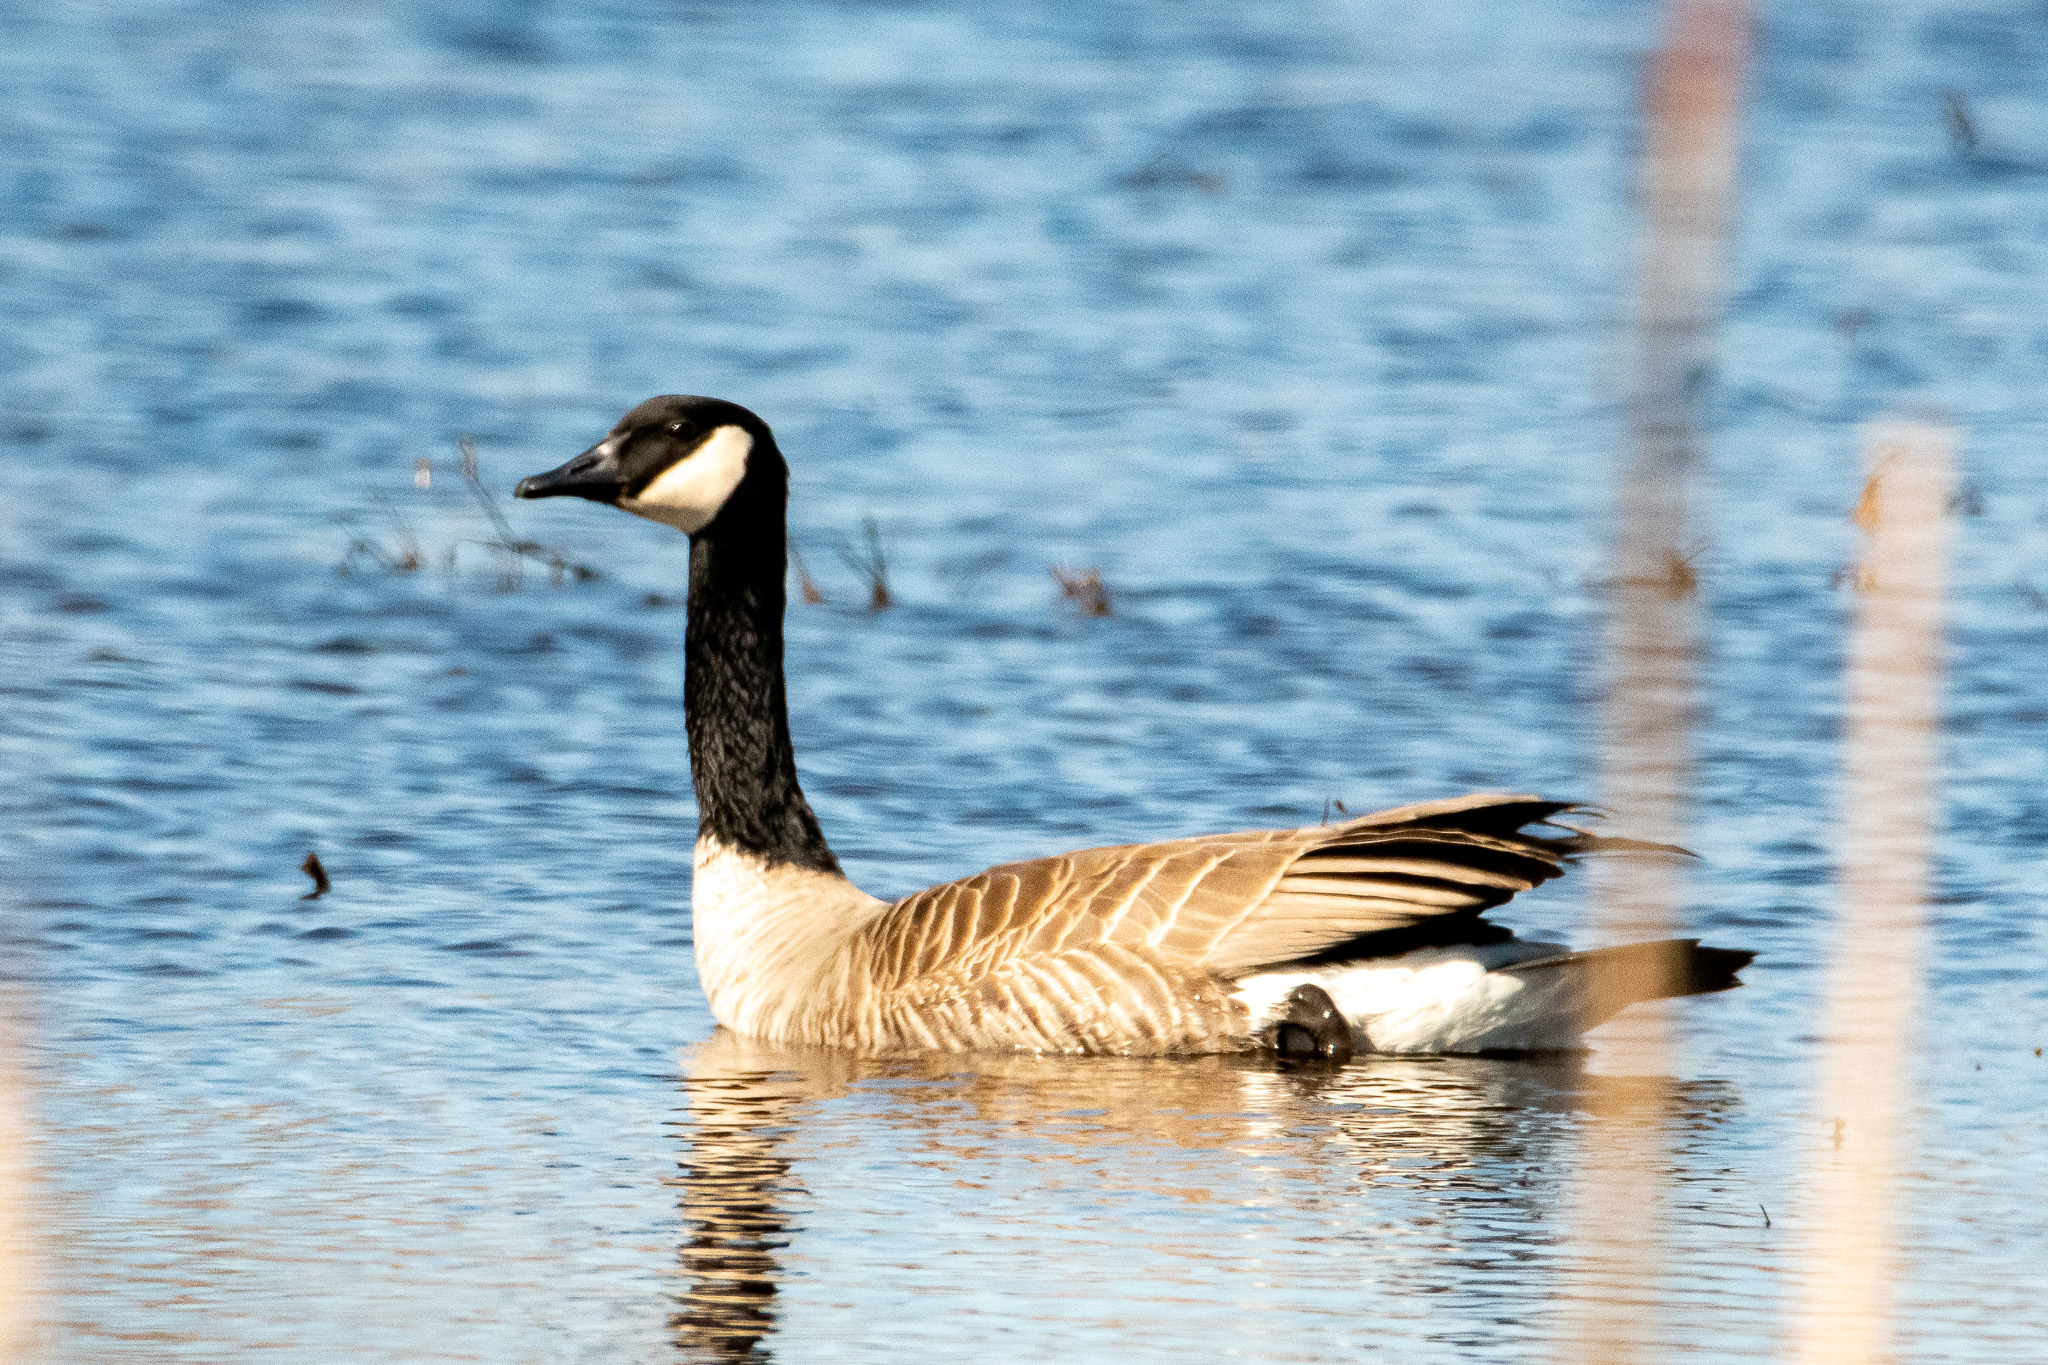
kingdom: Animalia
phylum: Chordata
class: Aves
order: Anseriformes
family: Anatidae
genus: Branta
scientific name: Branta canadensis
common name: Canada goose
